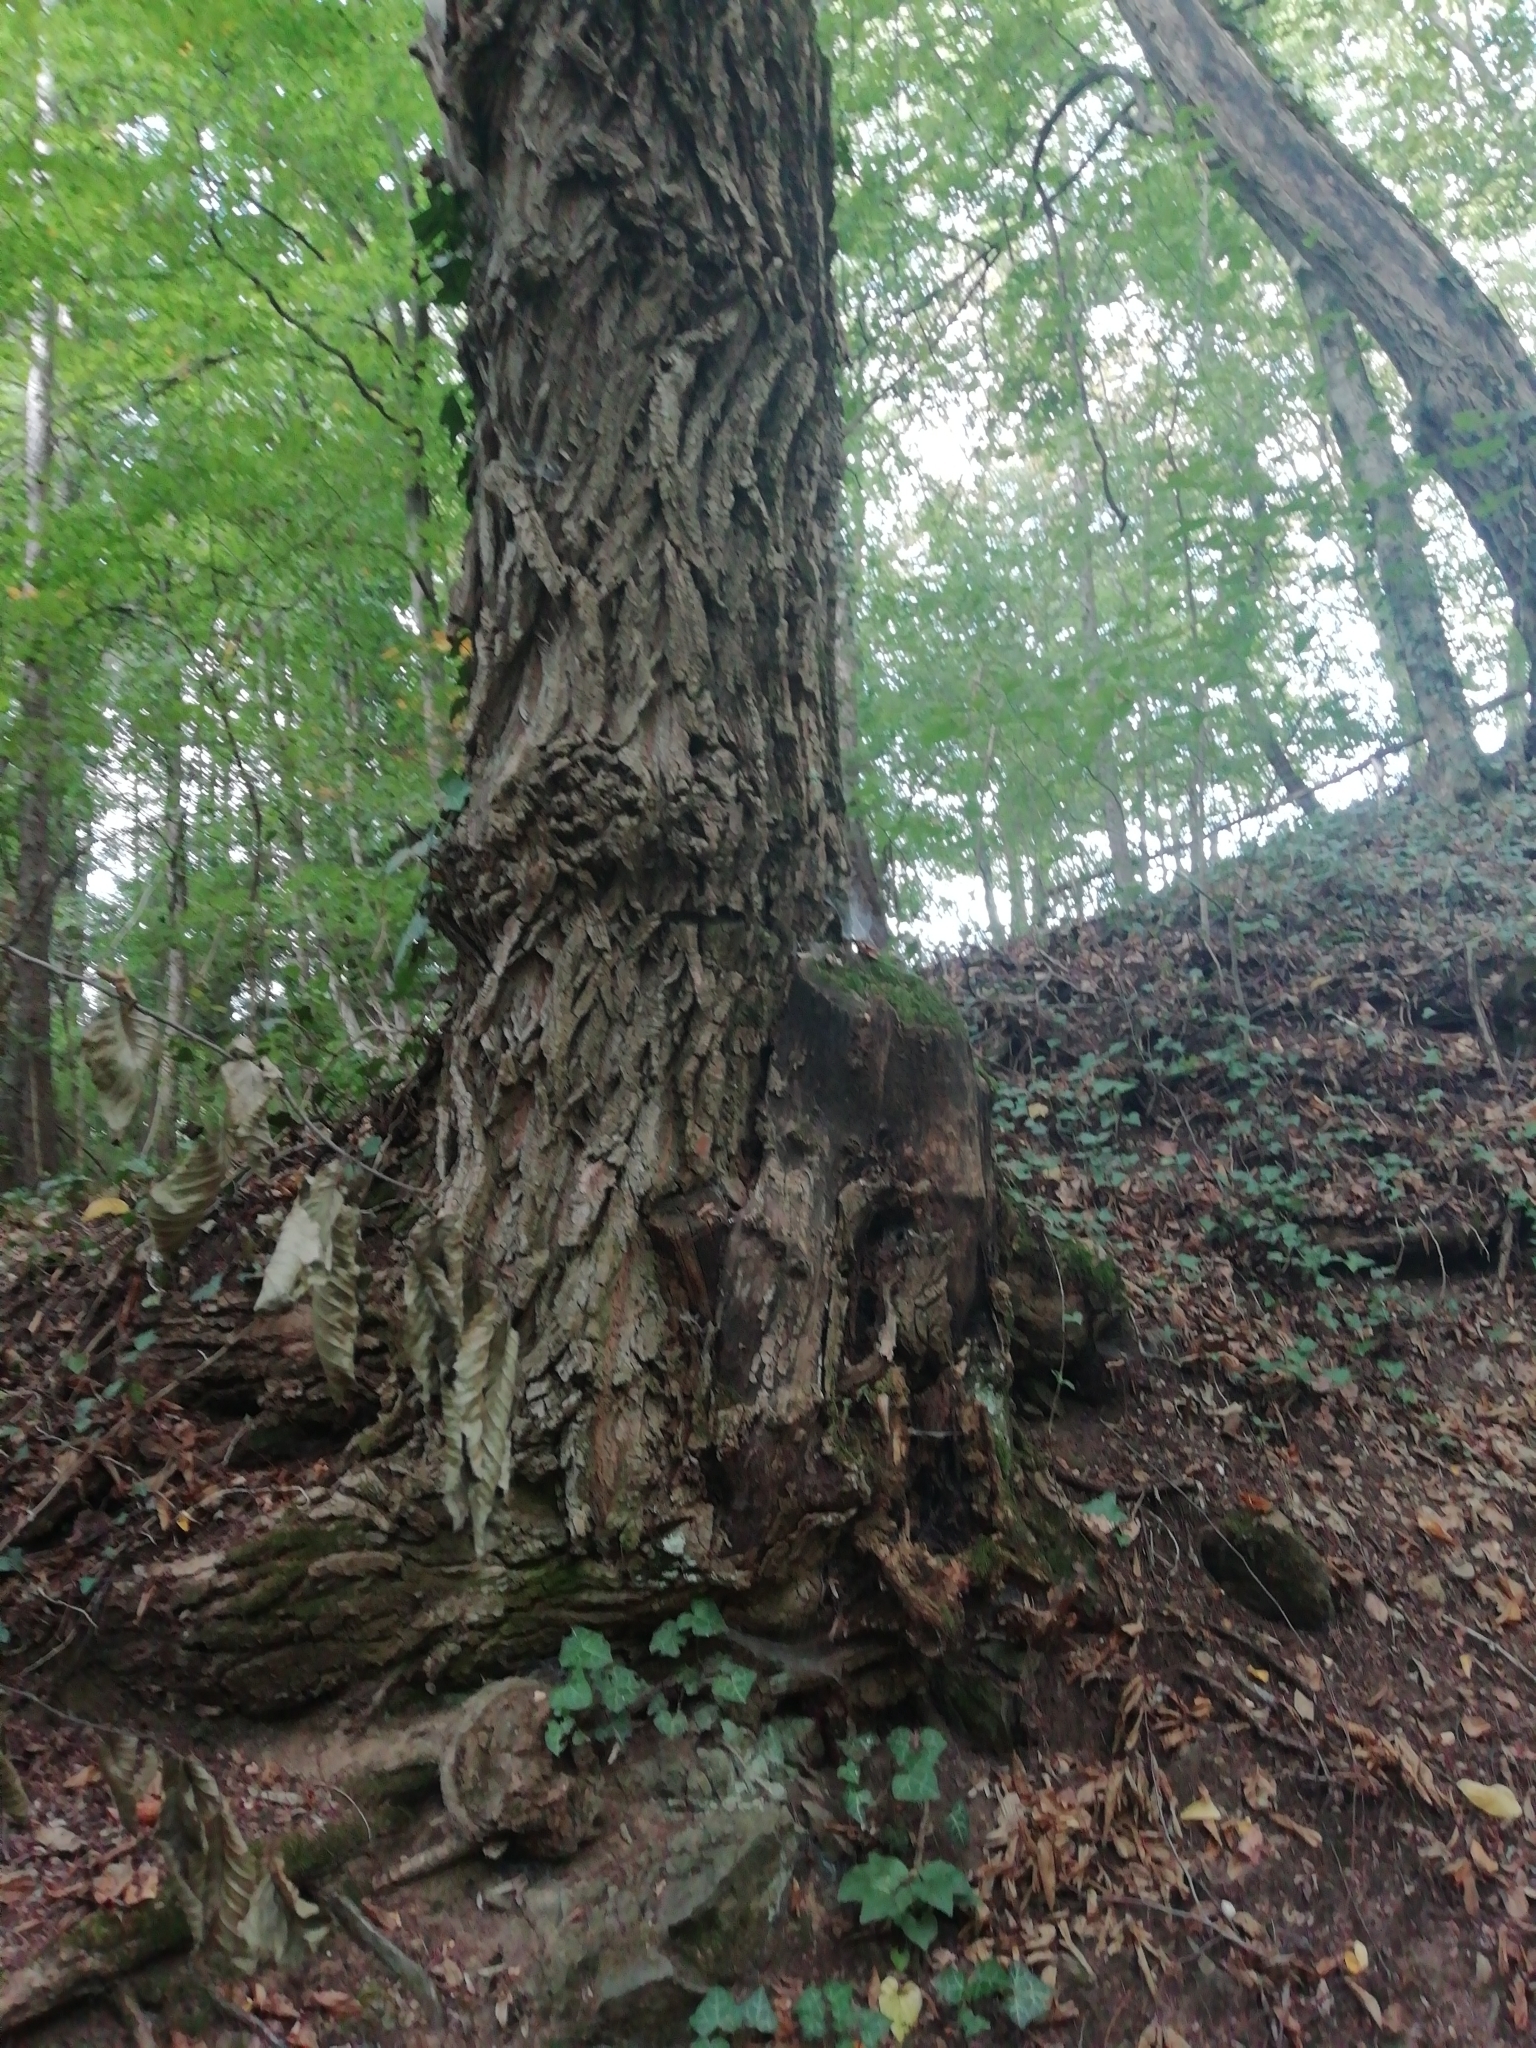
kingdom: Plantae
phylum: Tracheophyta
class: Magnoliopsida
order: Fagales
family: Fagaceae
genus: Castanea
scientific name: Castanea sativa
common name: Sweet chestnut
